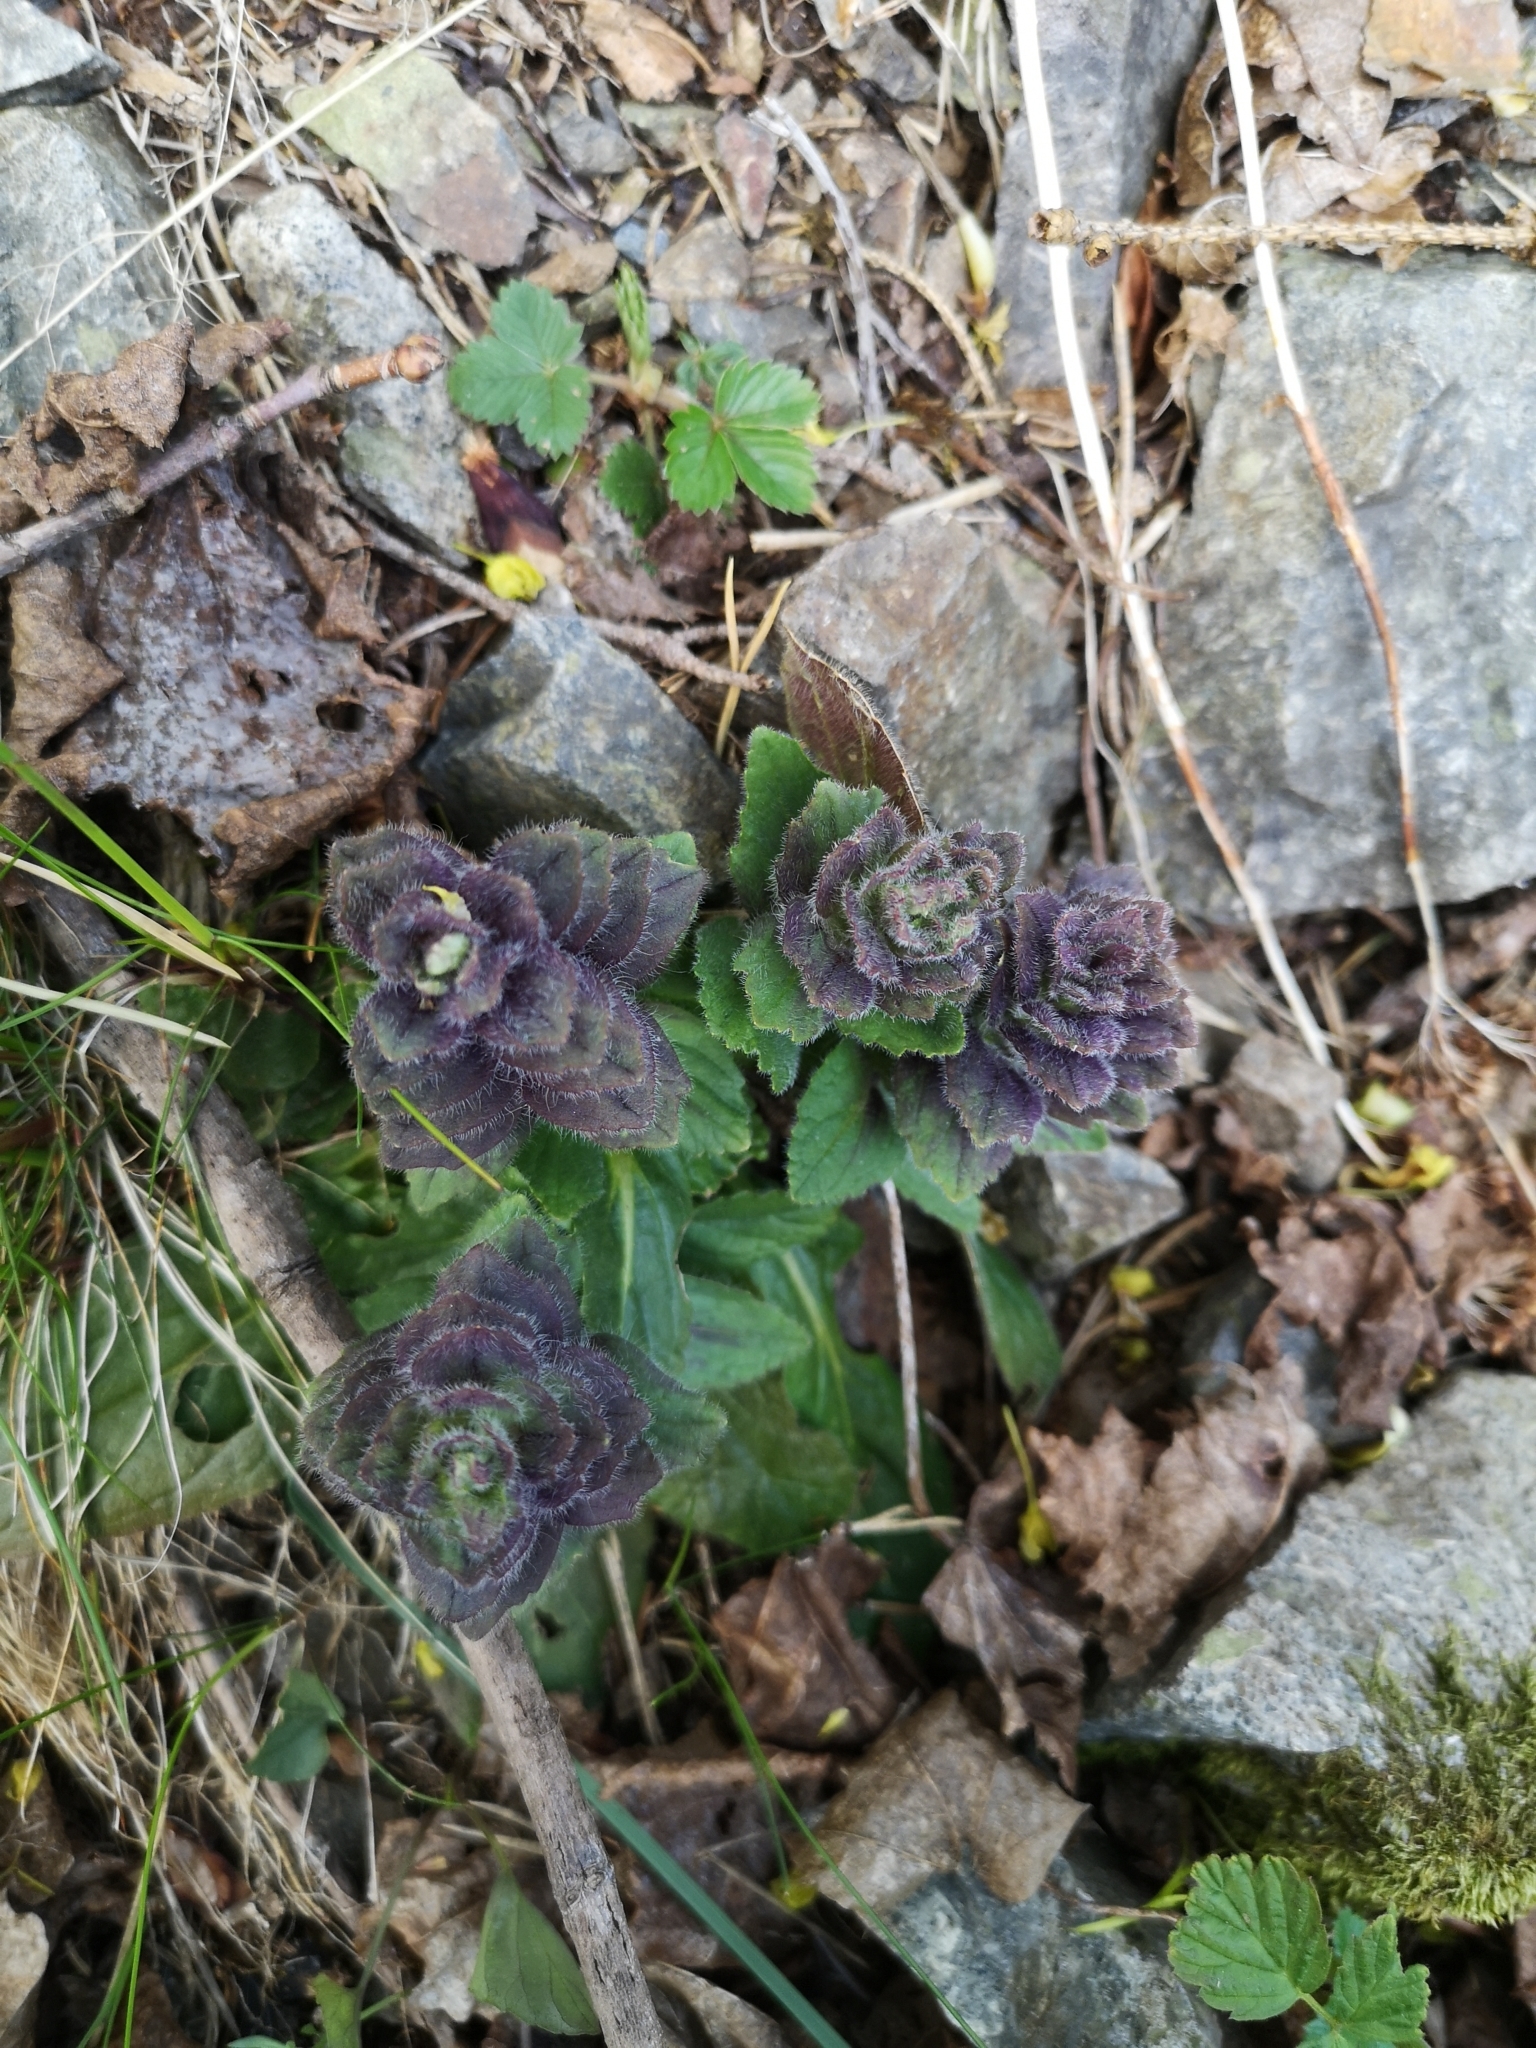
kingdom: Plantae
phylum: Tracheophyta
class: Magnoliopsida
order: Lamiales
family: Lamiaceae
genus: Ajuga
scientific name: Ajuga pyramidalis
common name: Pyramid bugle
